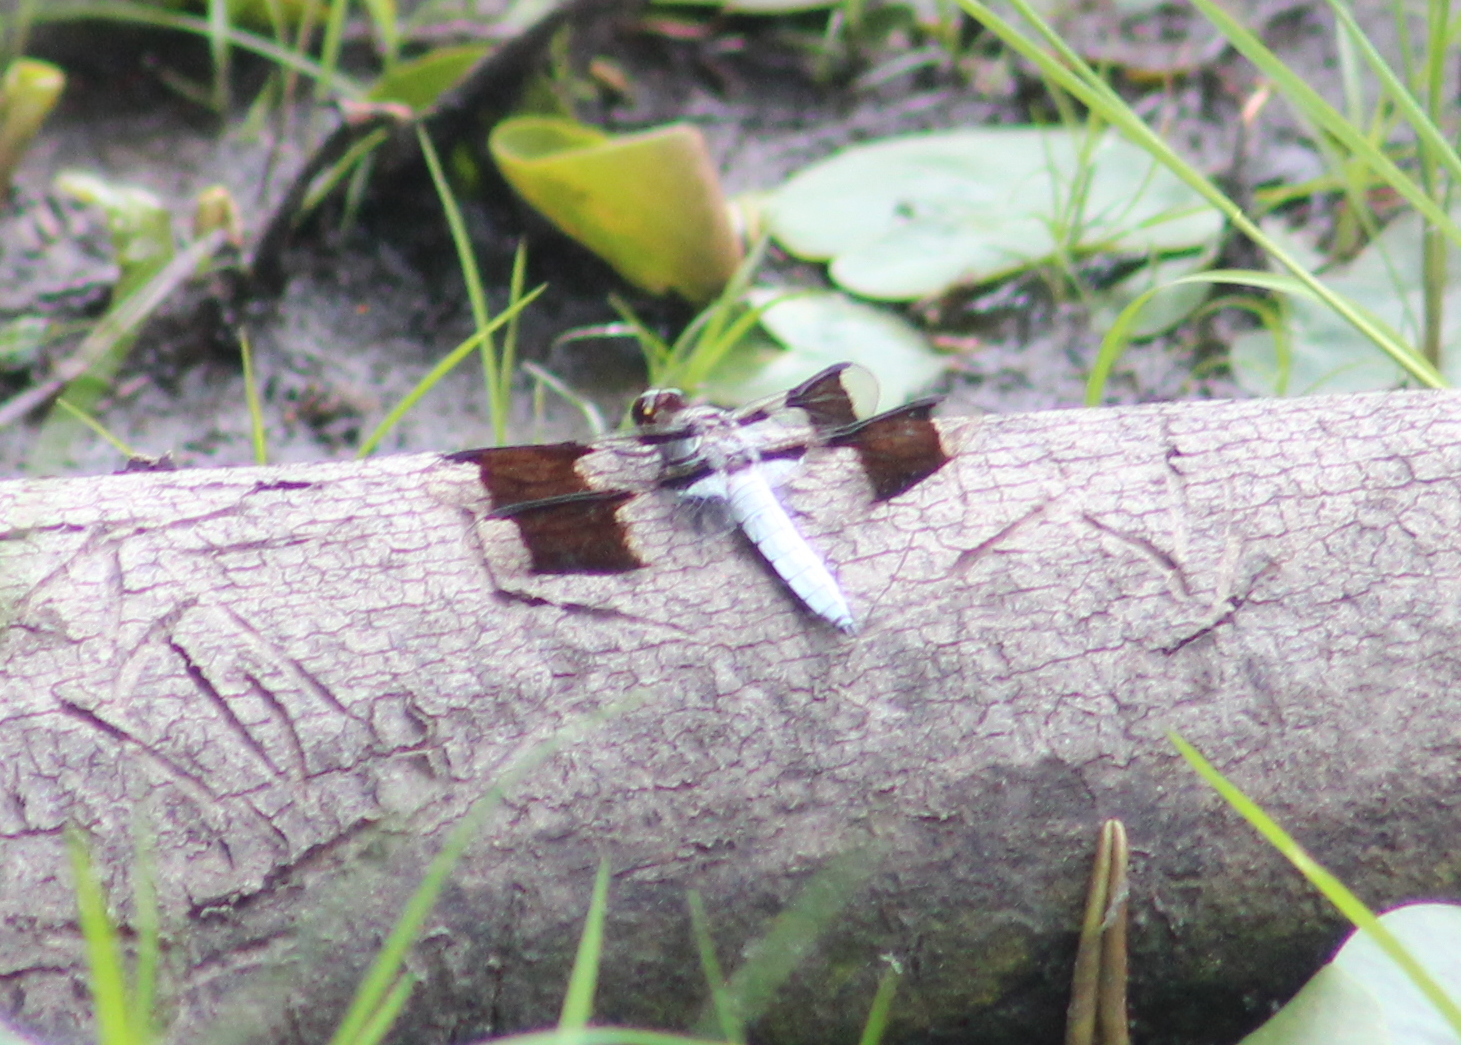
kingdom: Animalia
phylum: Arthropoda
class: Insecta
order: Odonata
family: Libellulidae
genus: Plathemis
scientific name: Plathemis lydia
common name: Common whitetail
